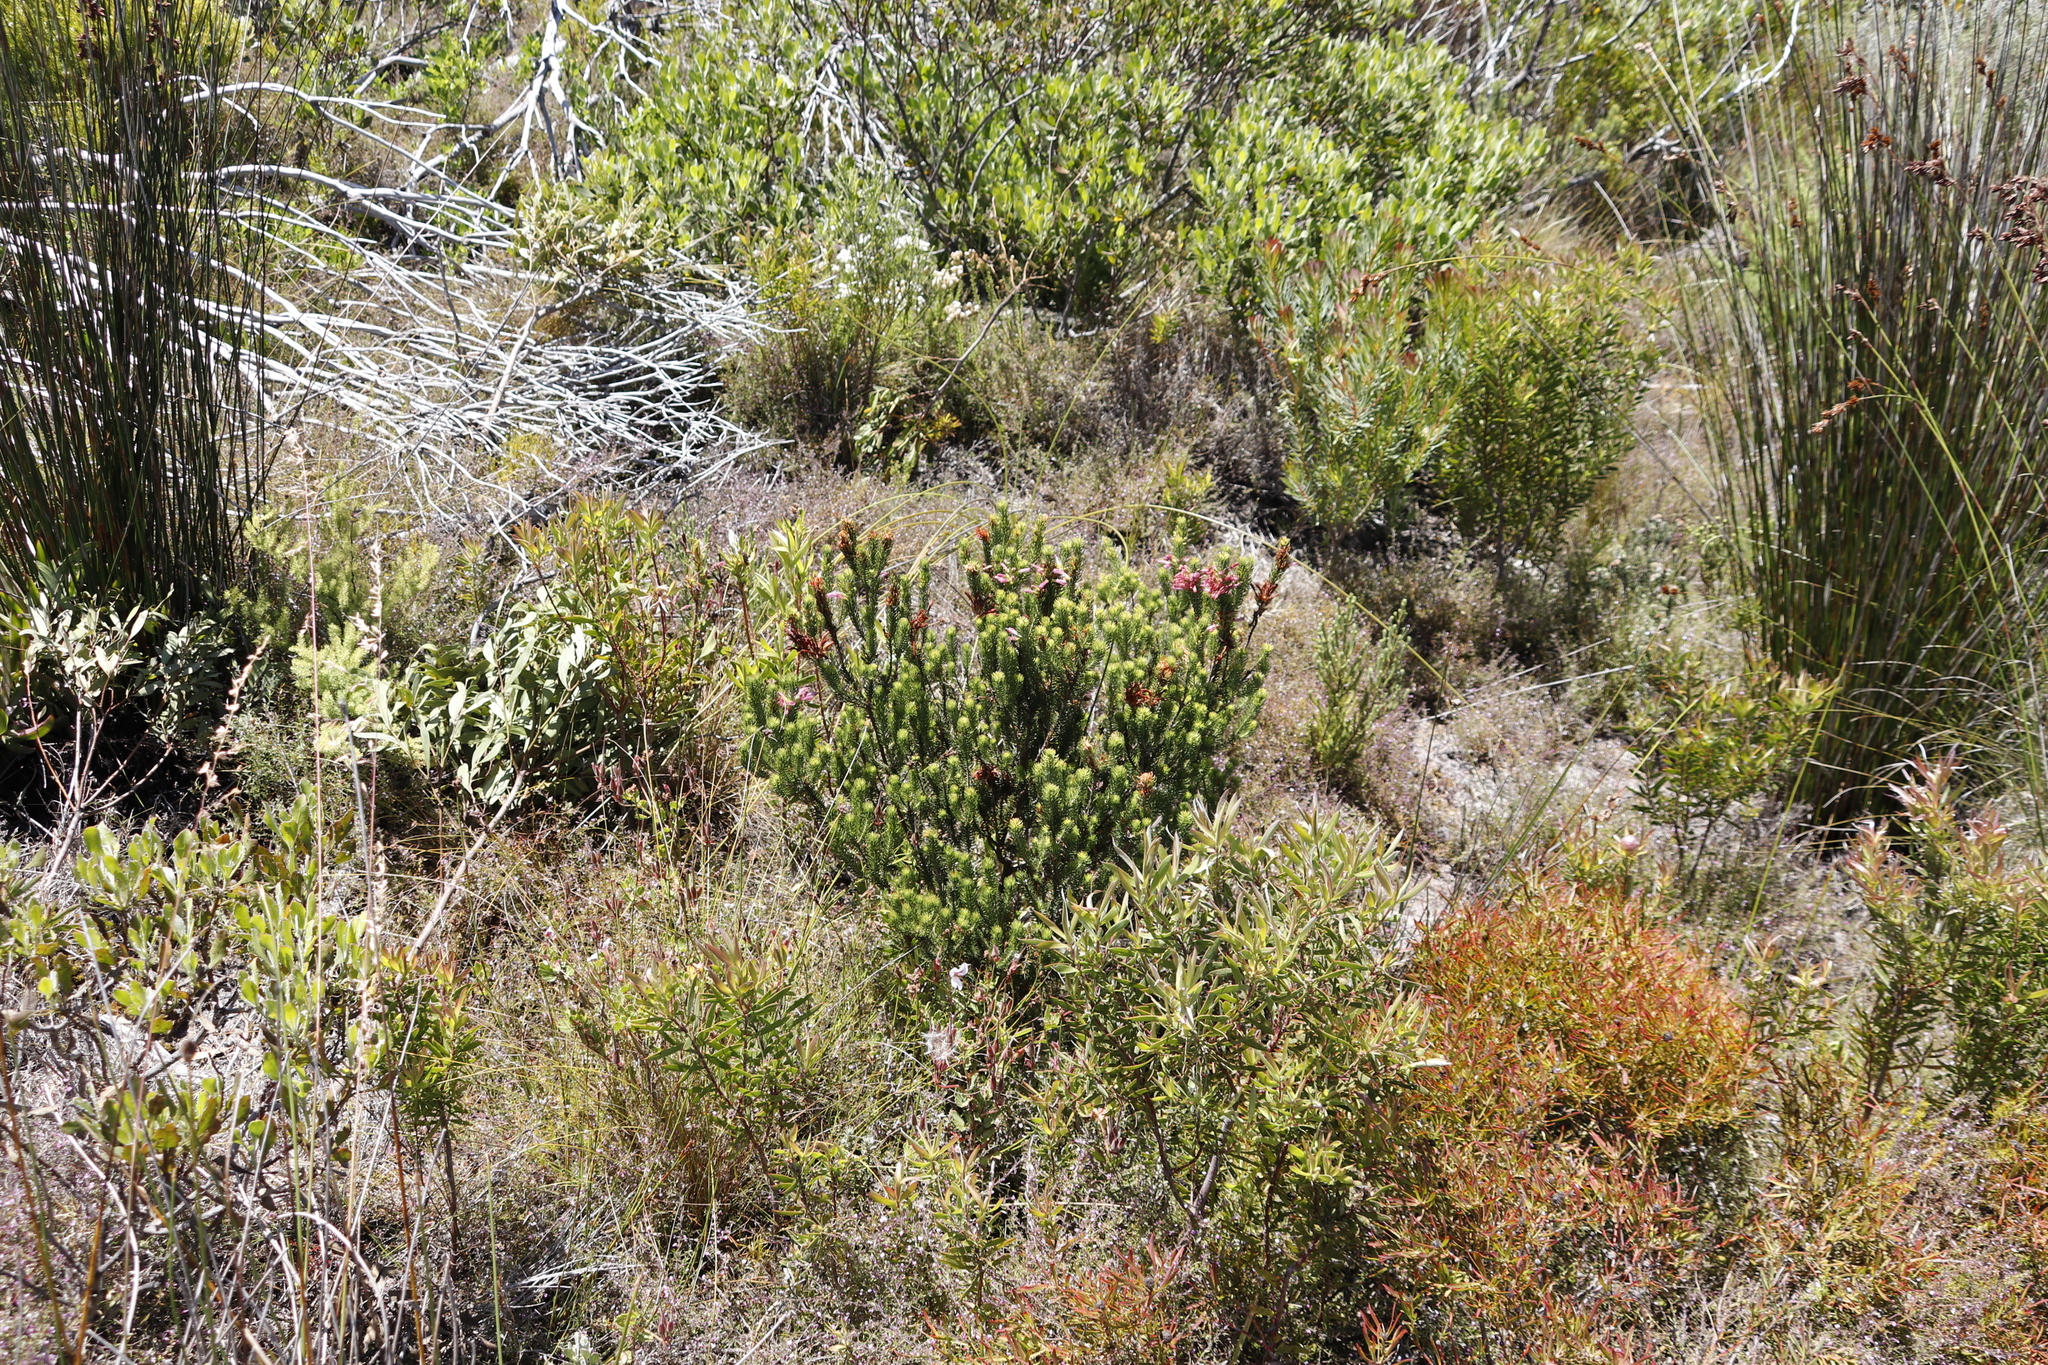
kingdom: Plantae
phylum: Tracheophyta
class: Magnoliopsida
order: Ericales
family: Ericaceae
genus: Erica
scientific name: Erica abietina
